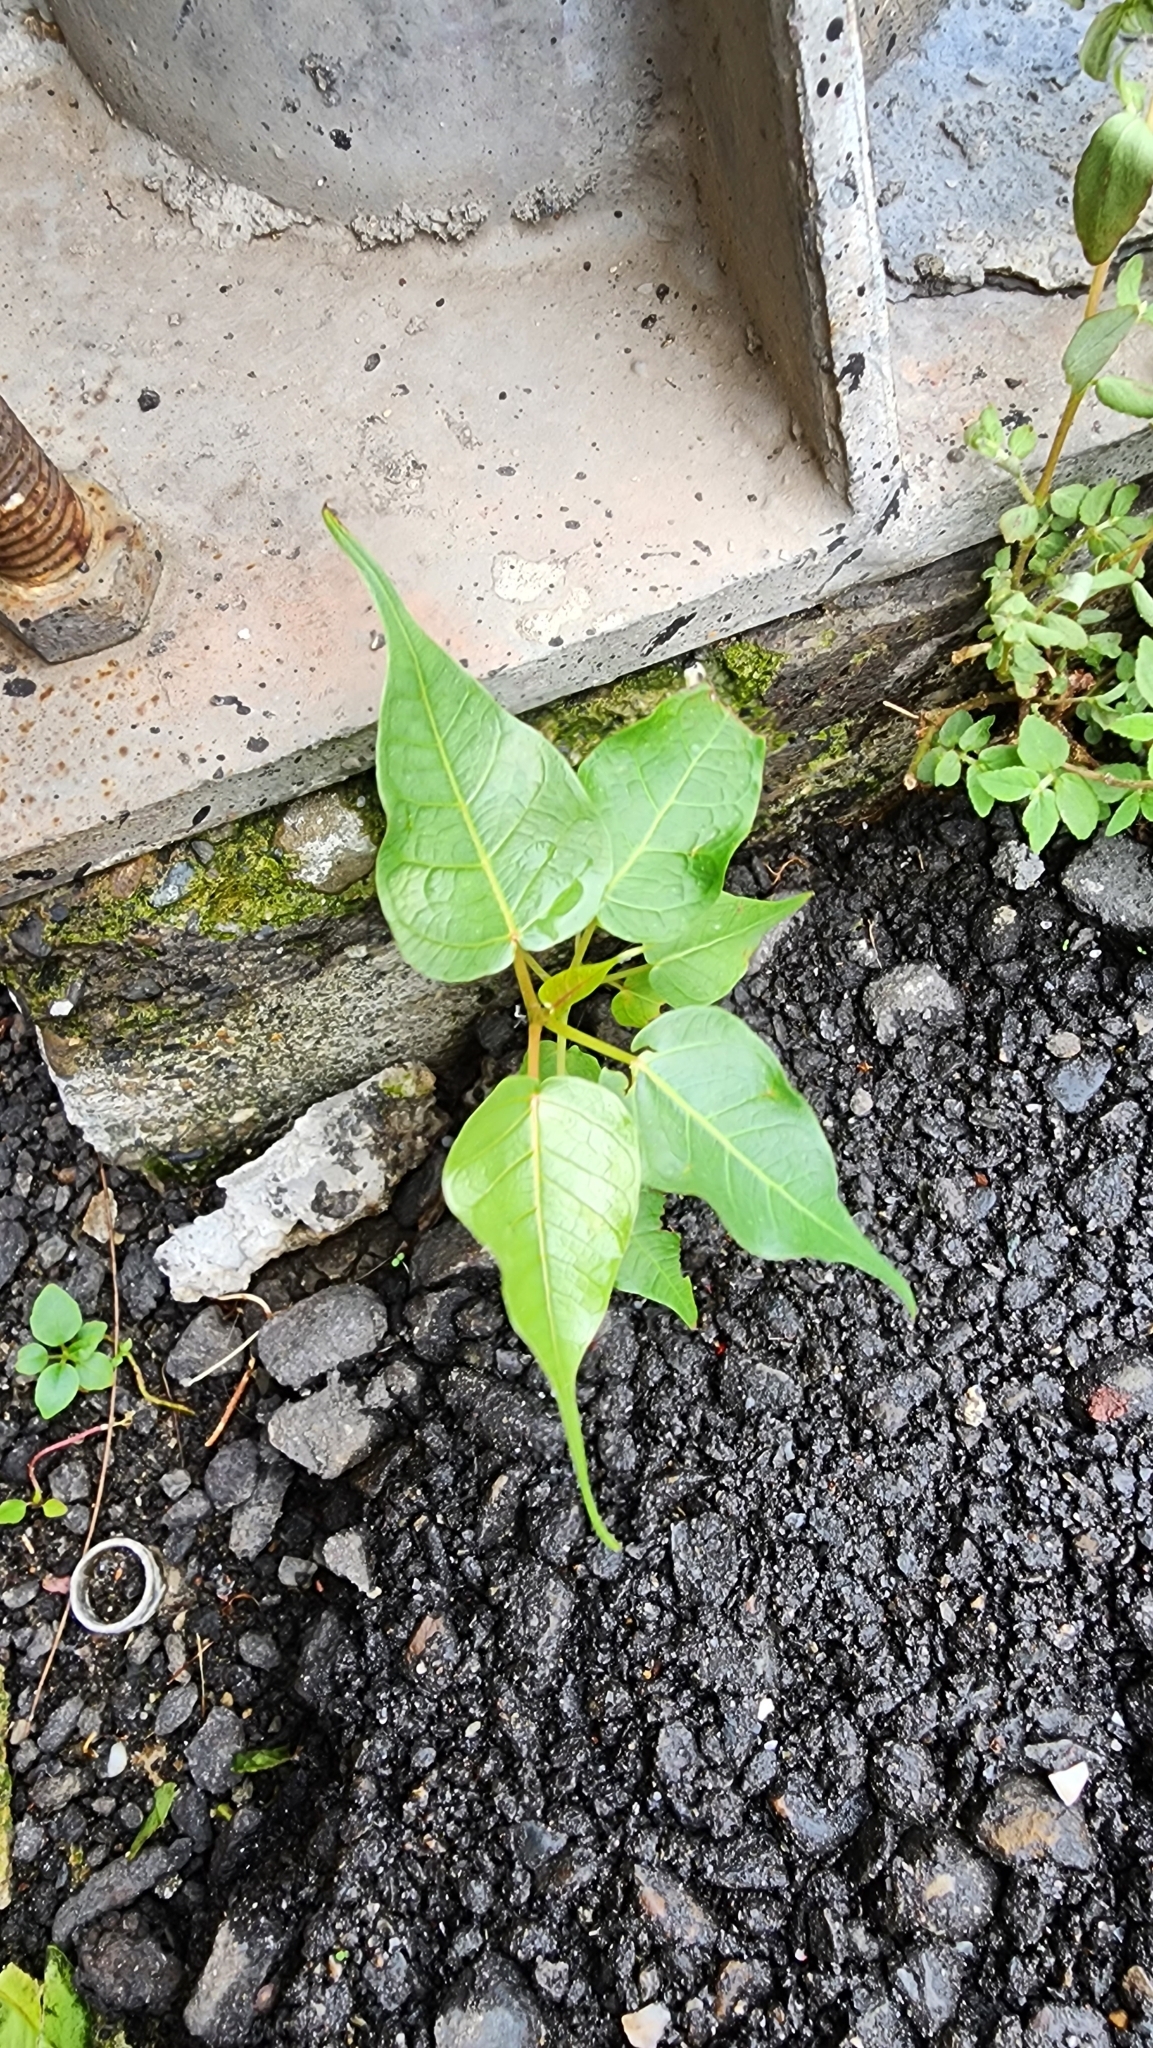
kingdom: Plantae
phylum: Tracheophyta
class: Magnoliopsida
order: Rosales
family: Moraceae
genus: Ficus
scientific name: Ficus religiosa
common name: Bodhi tree
